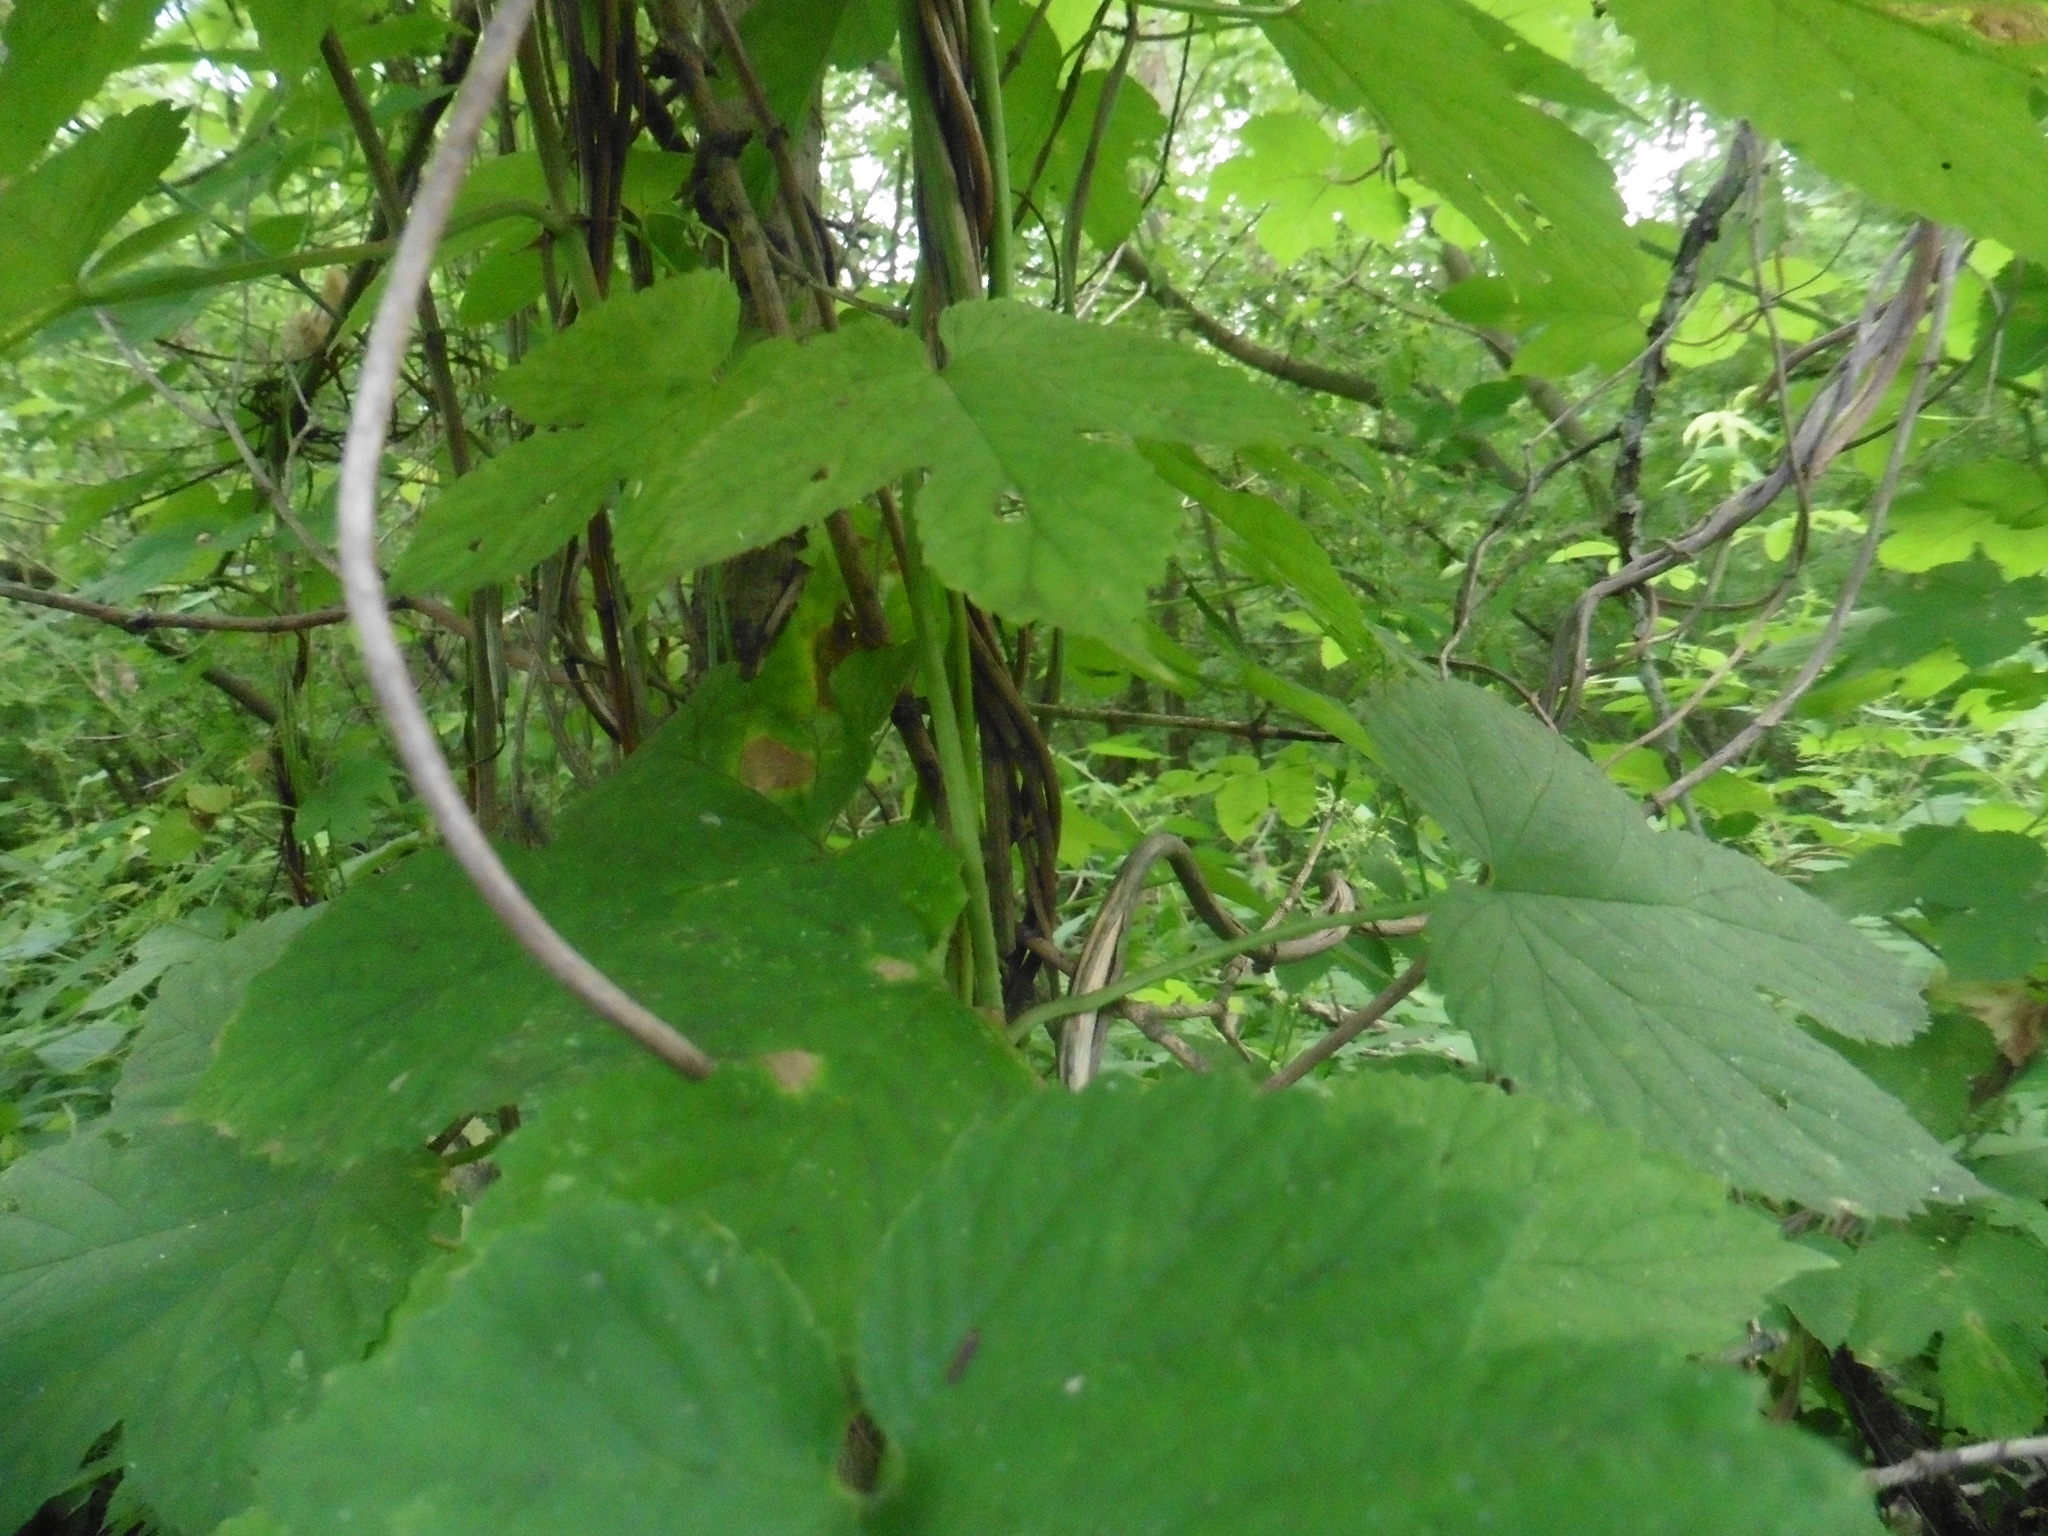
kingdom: Plantae
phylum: Tracheophyta
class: Magnoliopsida
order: Rosales
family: Cannabaceae
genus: Humulus
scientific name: Humulus lupulus
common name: Hop
